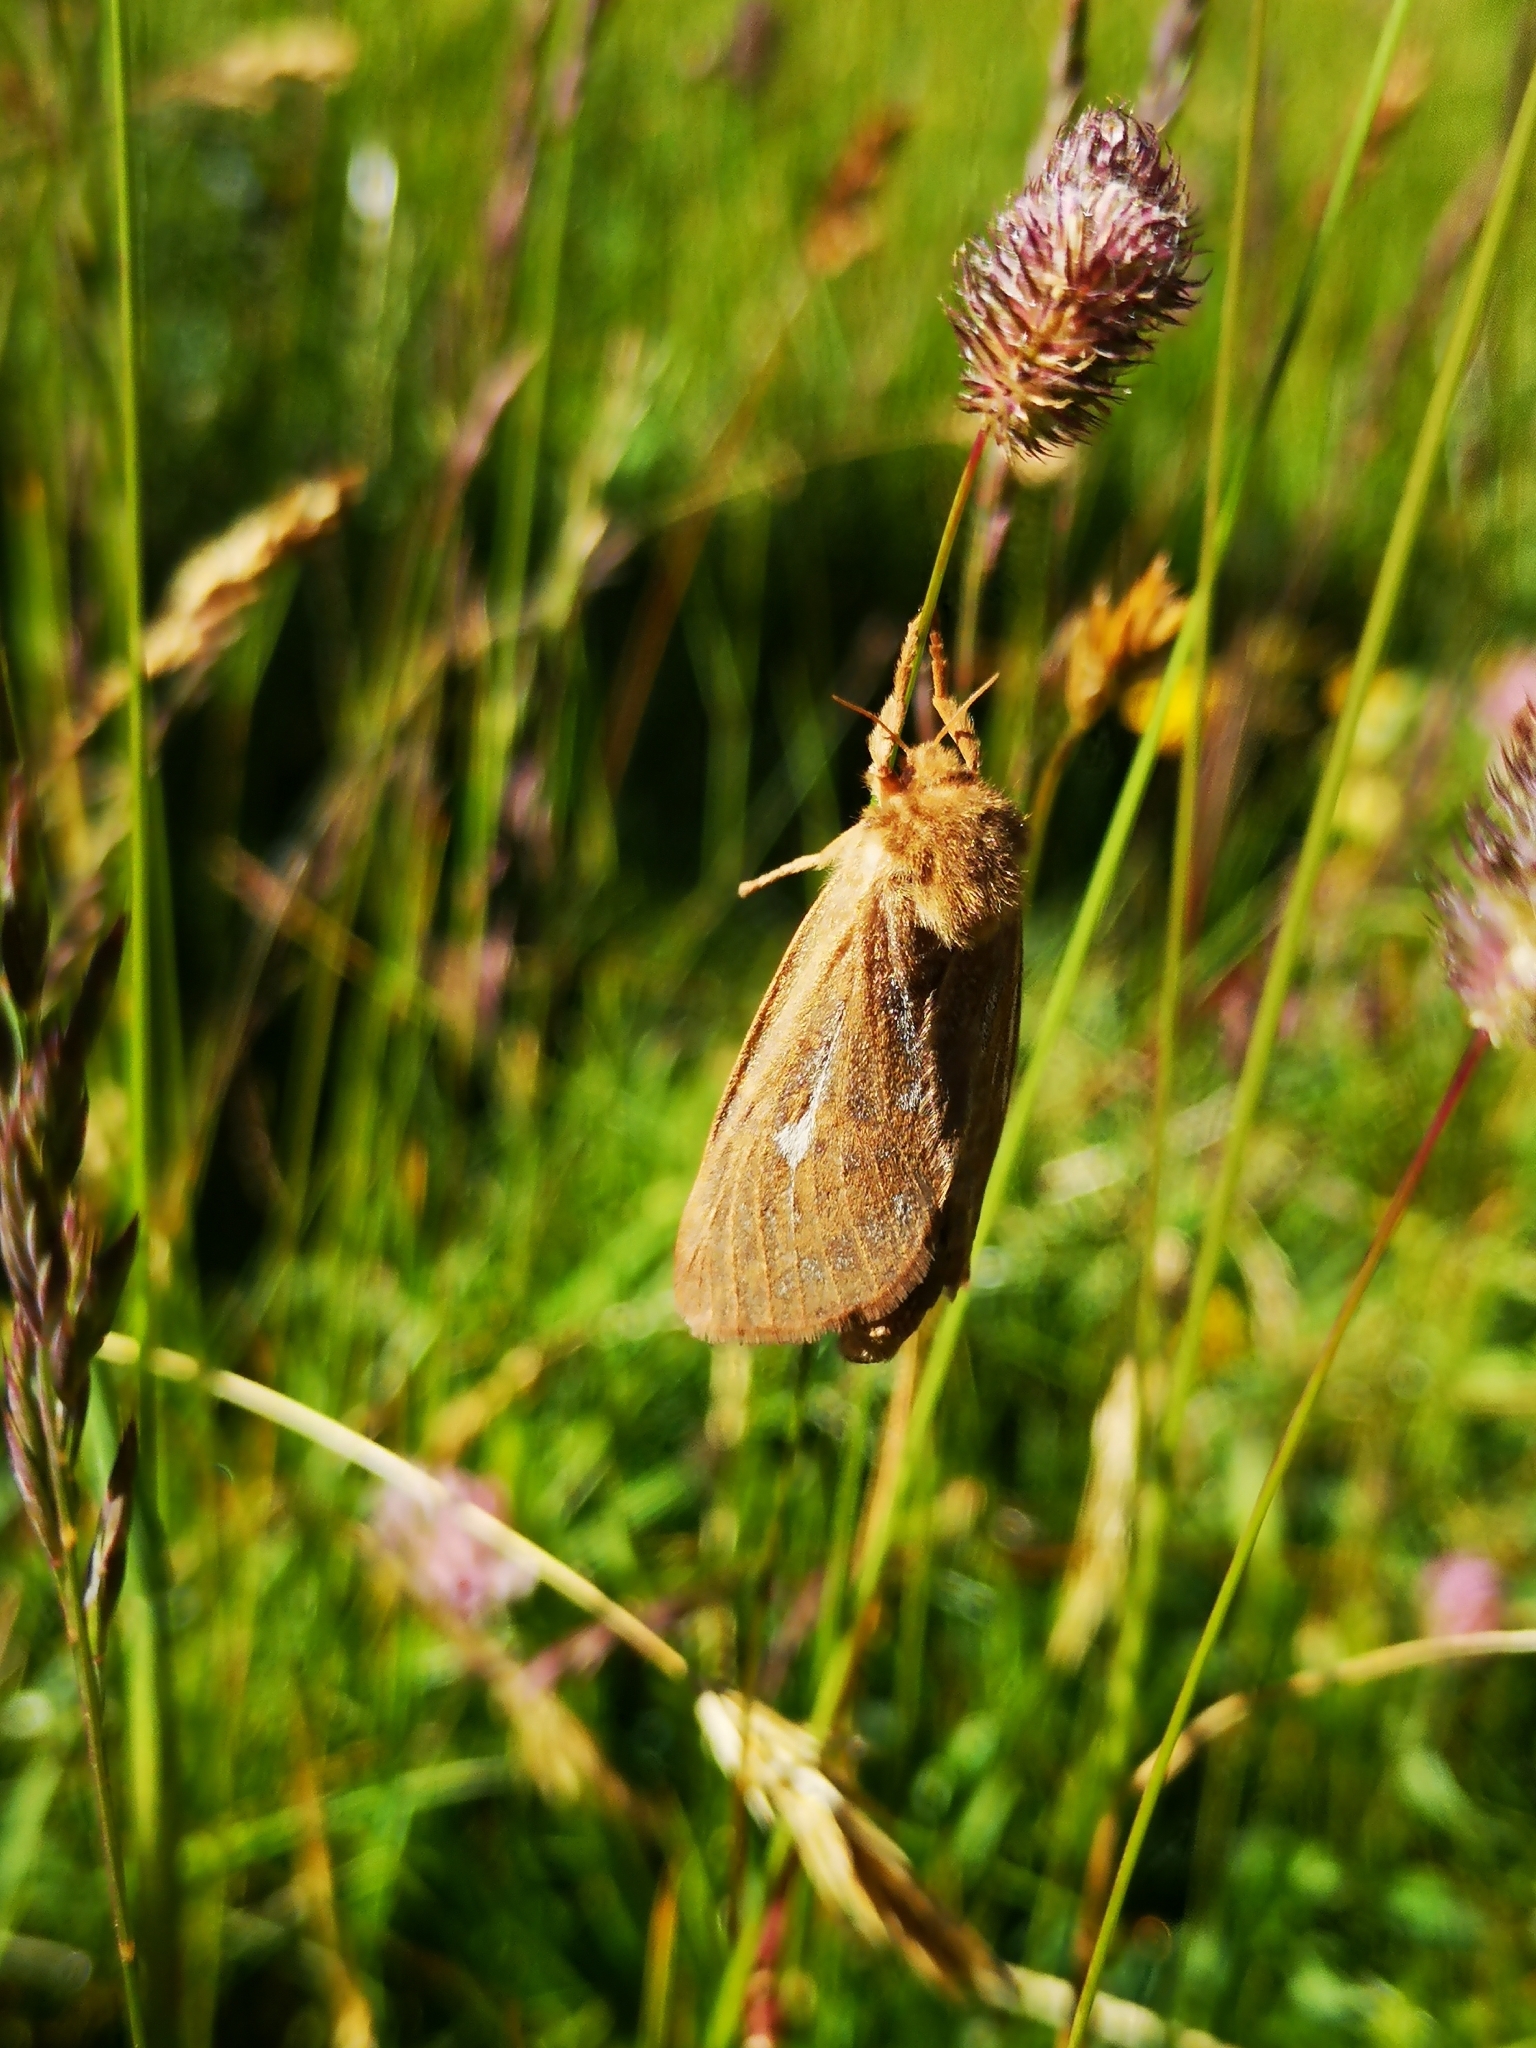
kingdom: Animalia
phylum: Arthropoda
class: Insecta
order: Lepidoptera
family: Hepialidae
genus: Pharmacis
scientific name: Pharmacis aemilianus
